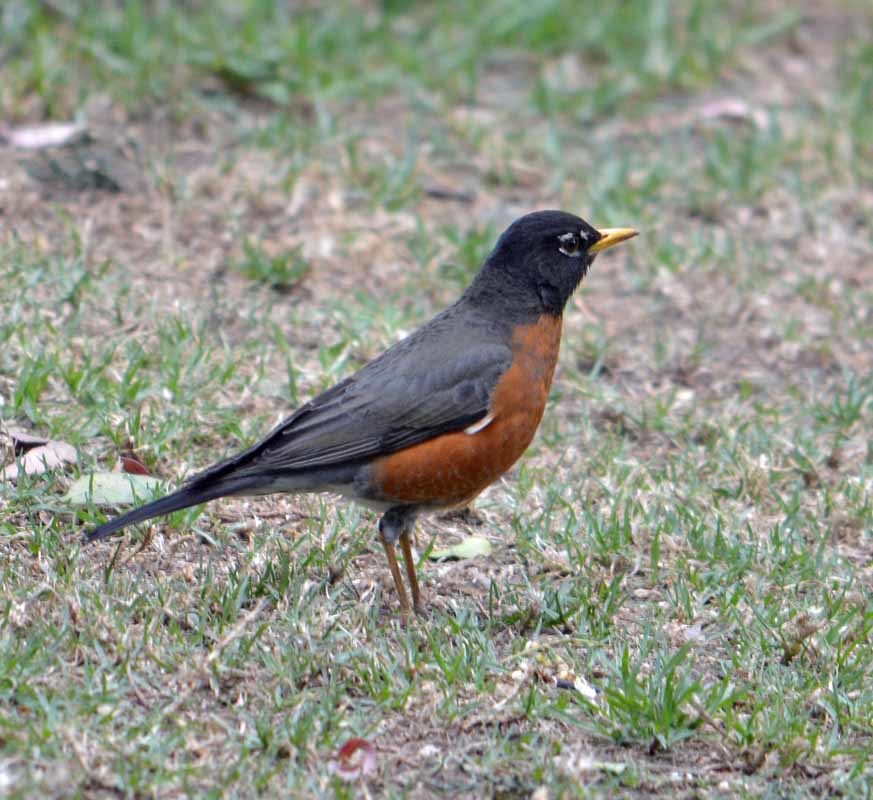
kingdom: Animalia
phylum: Chordata
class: Aves
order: Passeriformes
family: Turdidae
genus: Turdus
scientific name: Turdus migratorius
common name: American robin
